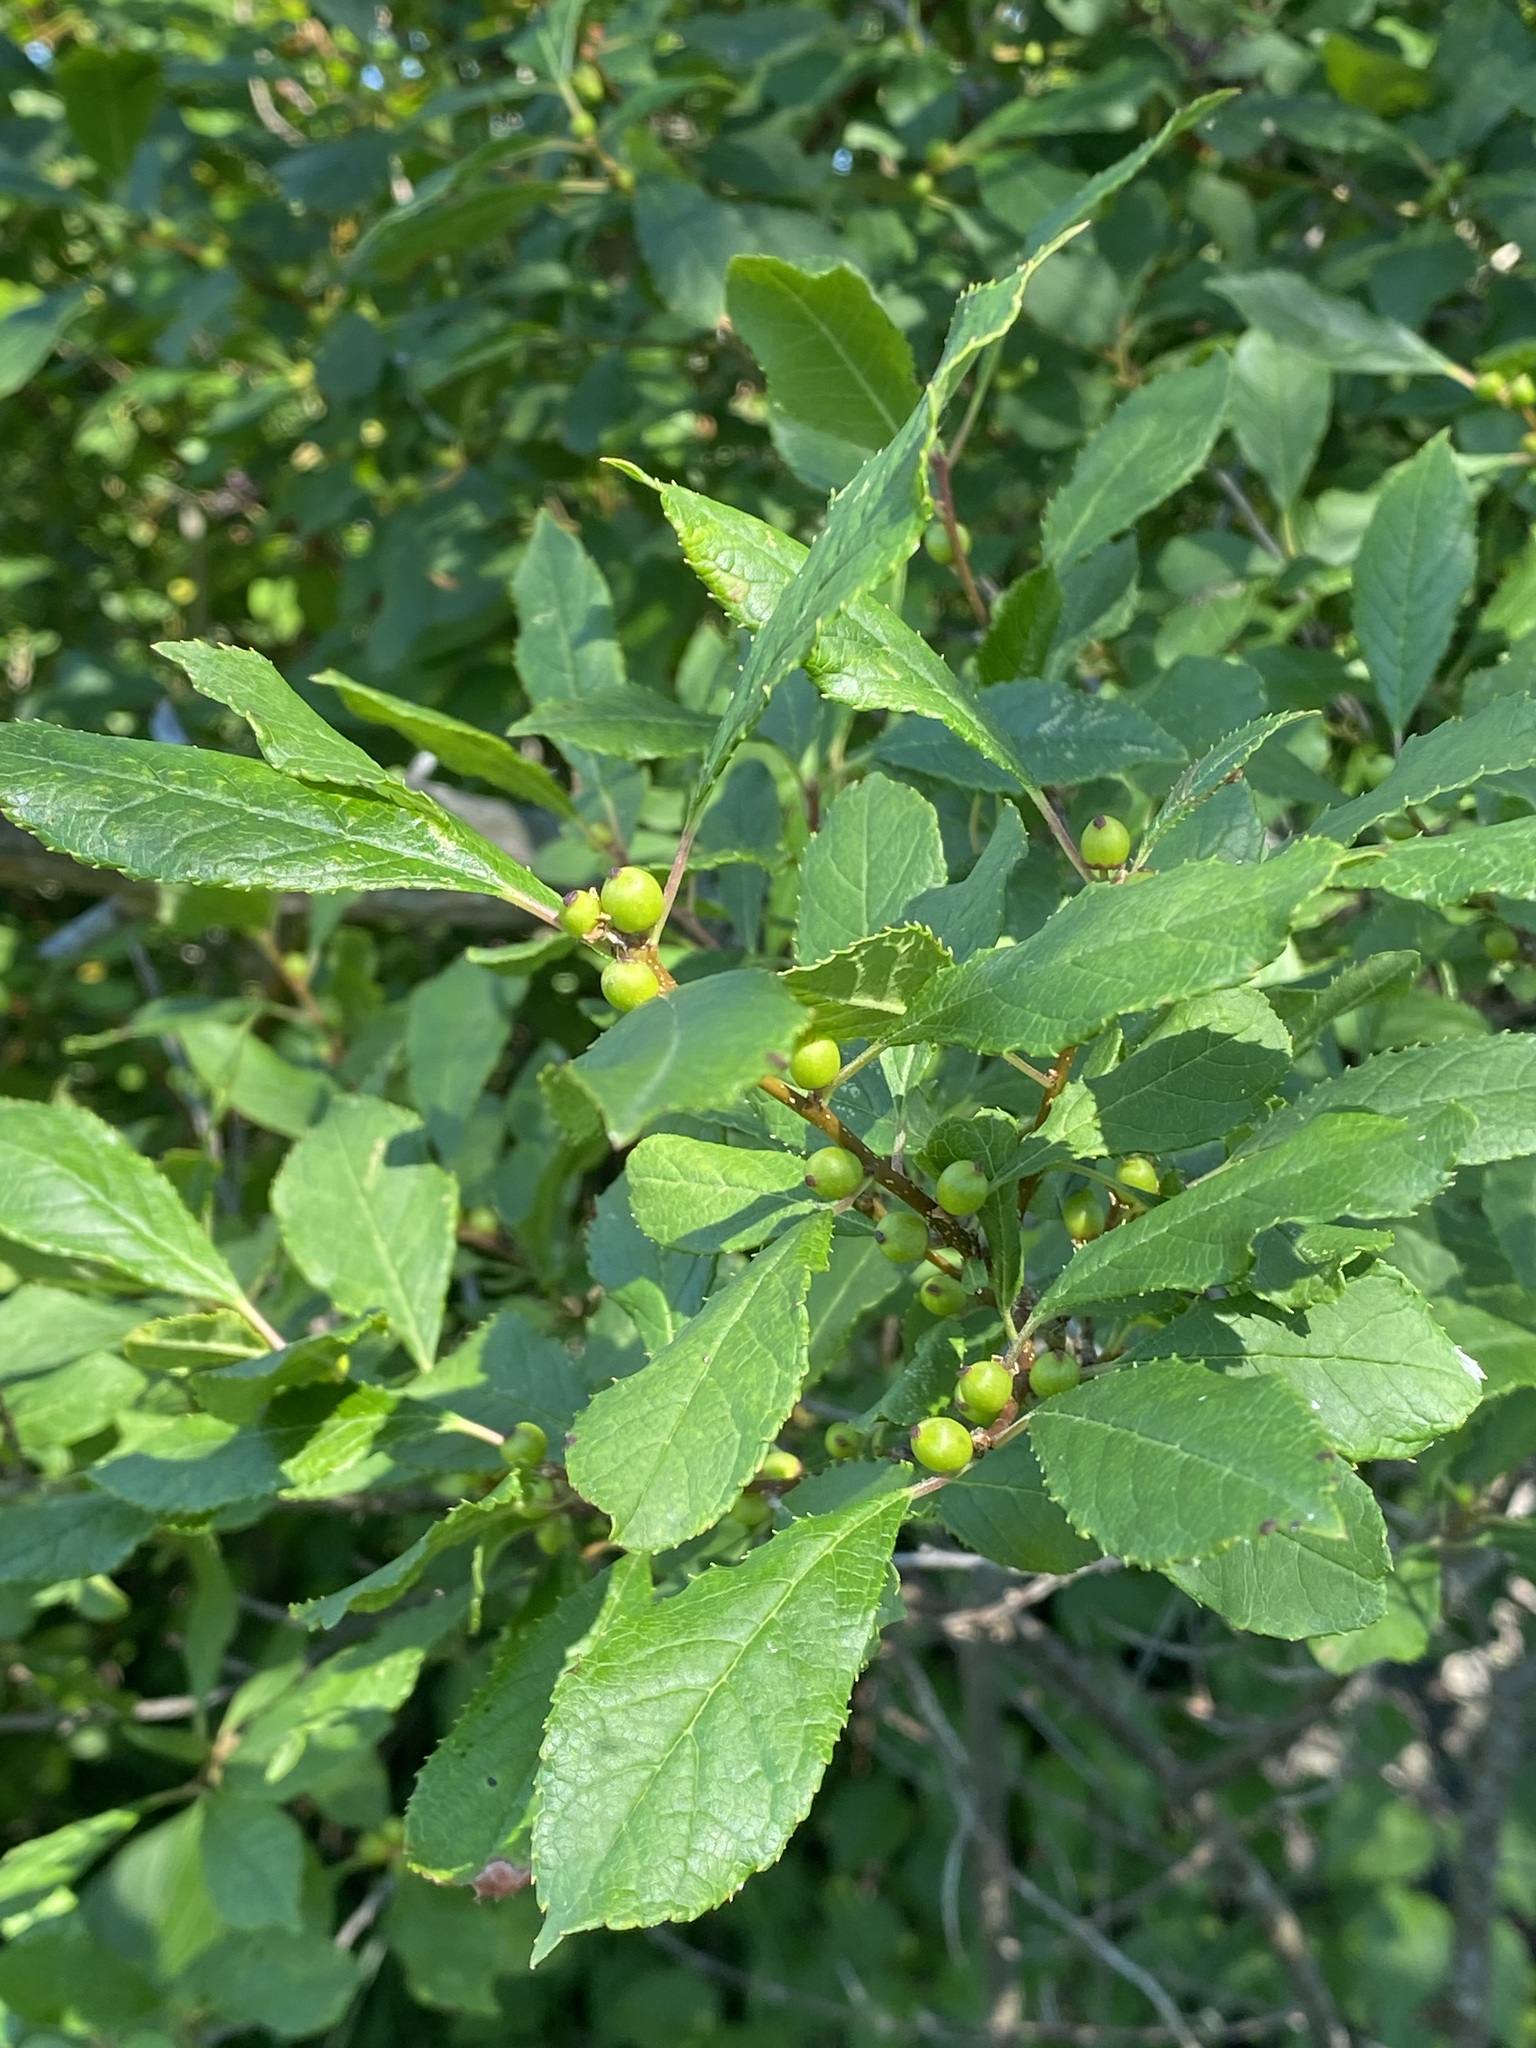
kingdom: Plantae
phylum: Tracheophyta
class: Magnoliopsida
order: Aquifoliales
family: Aquifoliaceae
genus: Ilex
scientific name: Ilex verticillata
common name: Virginia winterberry
